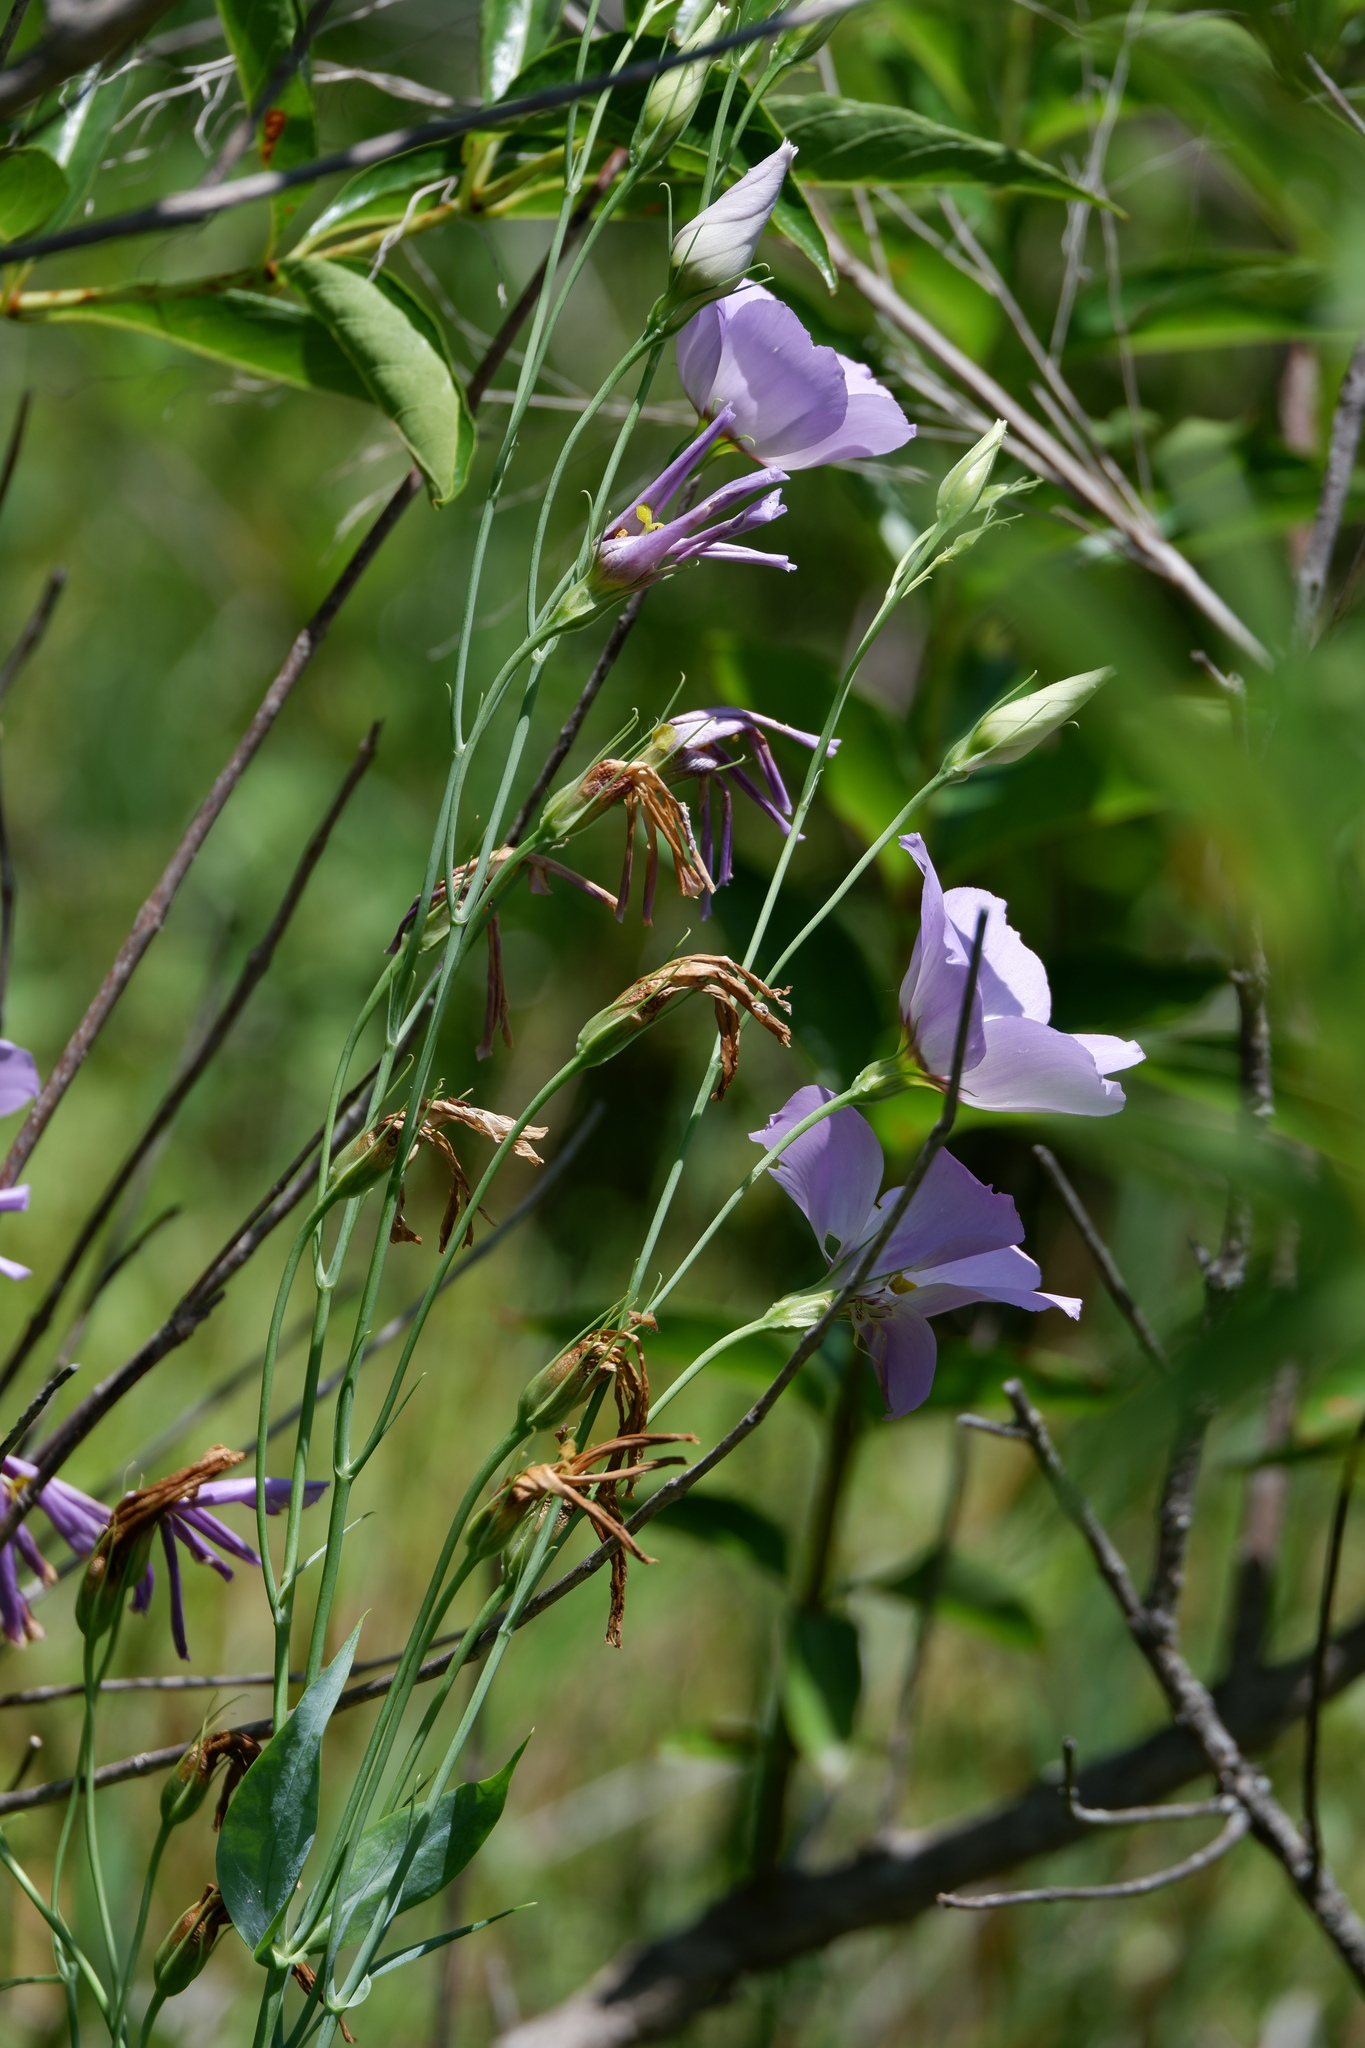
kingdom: Plantae
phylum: Tracheophyta
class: Magnoliopsida
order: Gentianales
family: Gentianaceae
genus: Eustoma
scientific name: Eustoma russellianum
